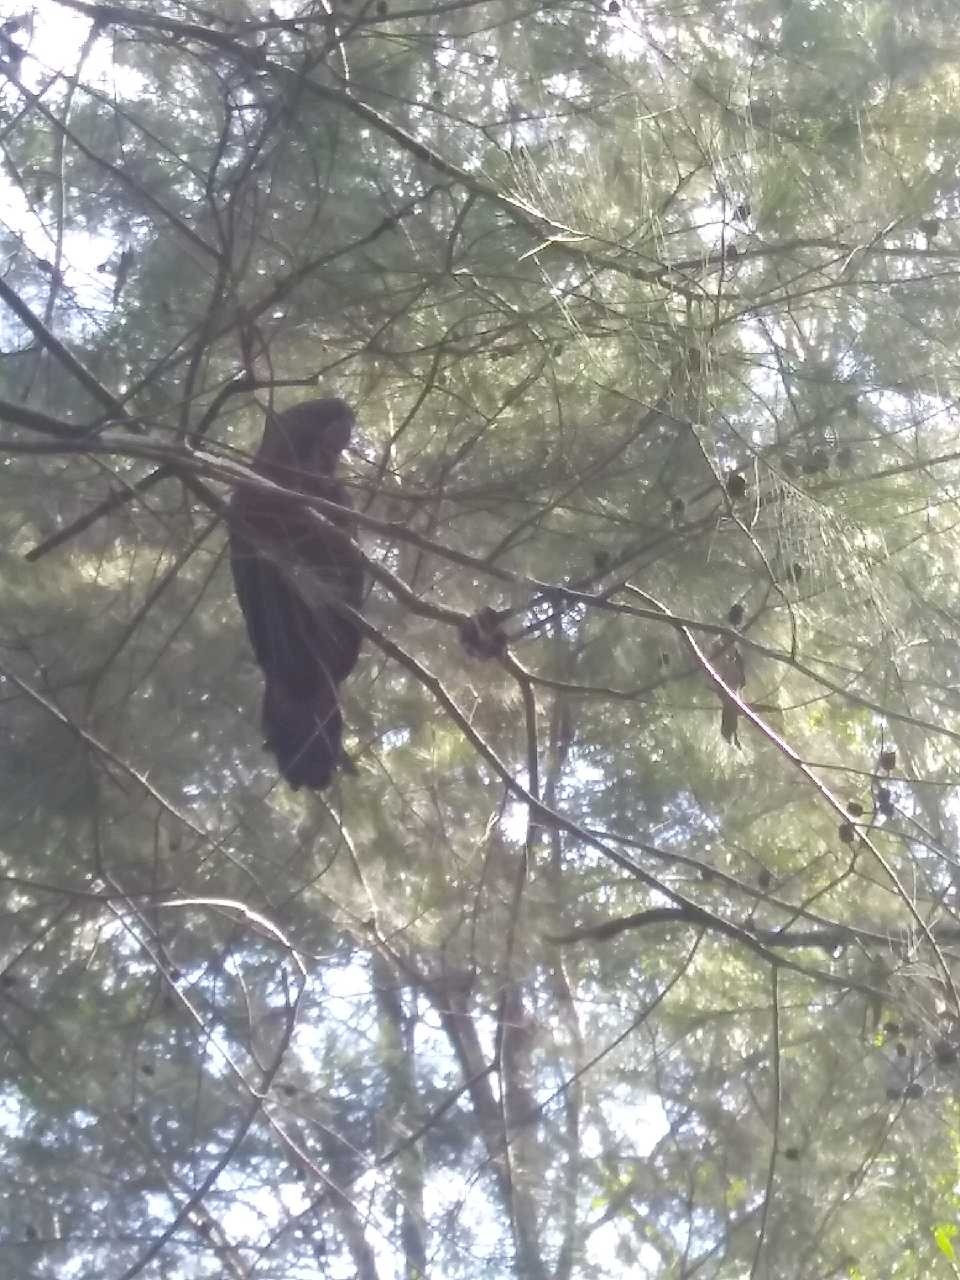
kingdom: Animalia
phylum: Chordata
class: Aves
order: Psittaciformes
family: Psittacidae
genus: Calyptorhynchus
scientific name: Calyptorhynchus lathami
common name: Glossy black cockatoo
